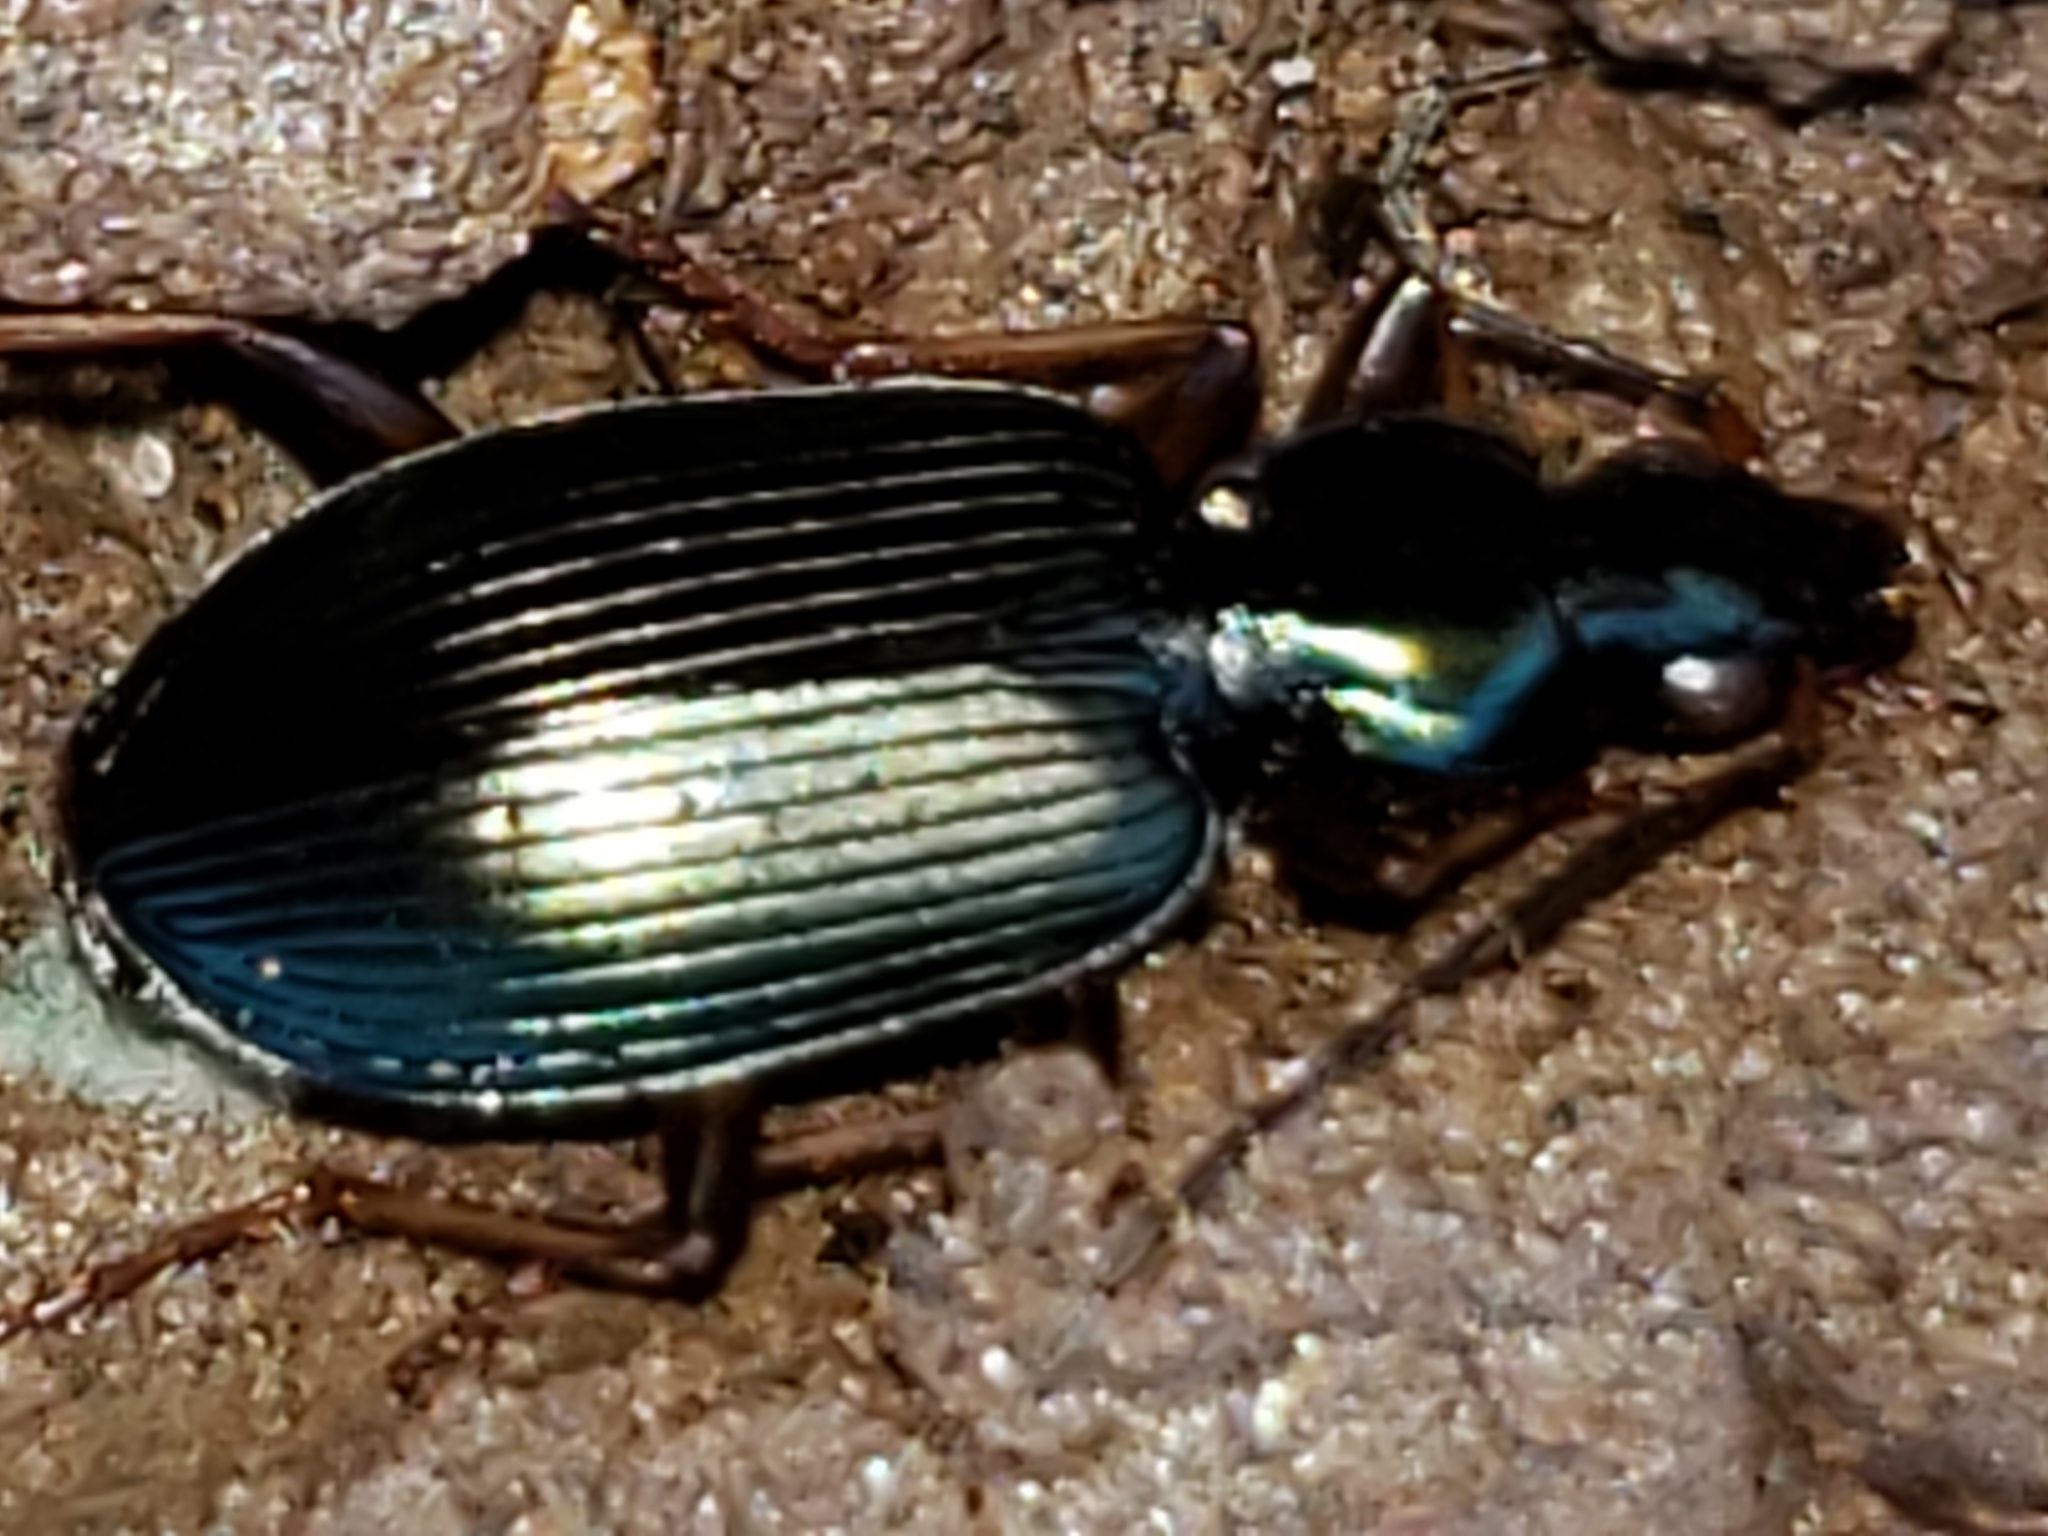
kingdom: Animalia
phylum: Arthropoda
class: Insecta
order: Coleoptera
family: Carabidae
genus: Agonum
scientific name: Agonum extensicolle
